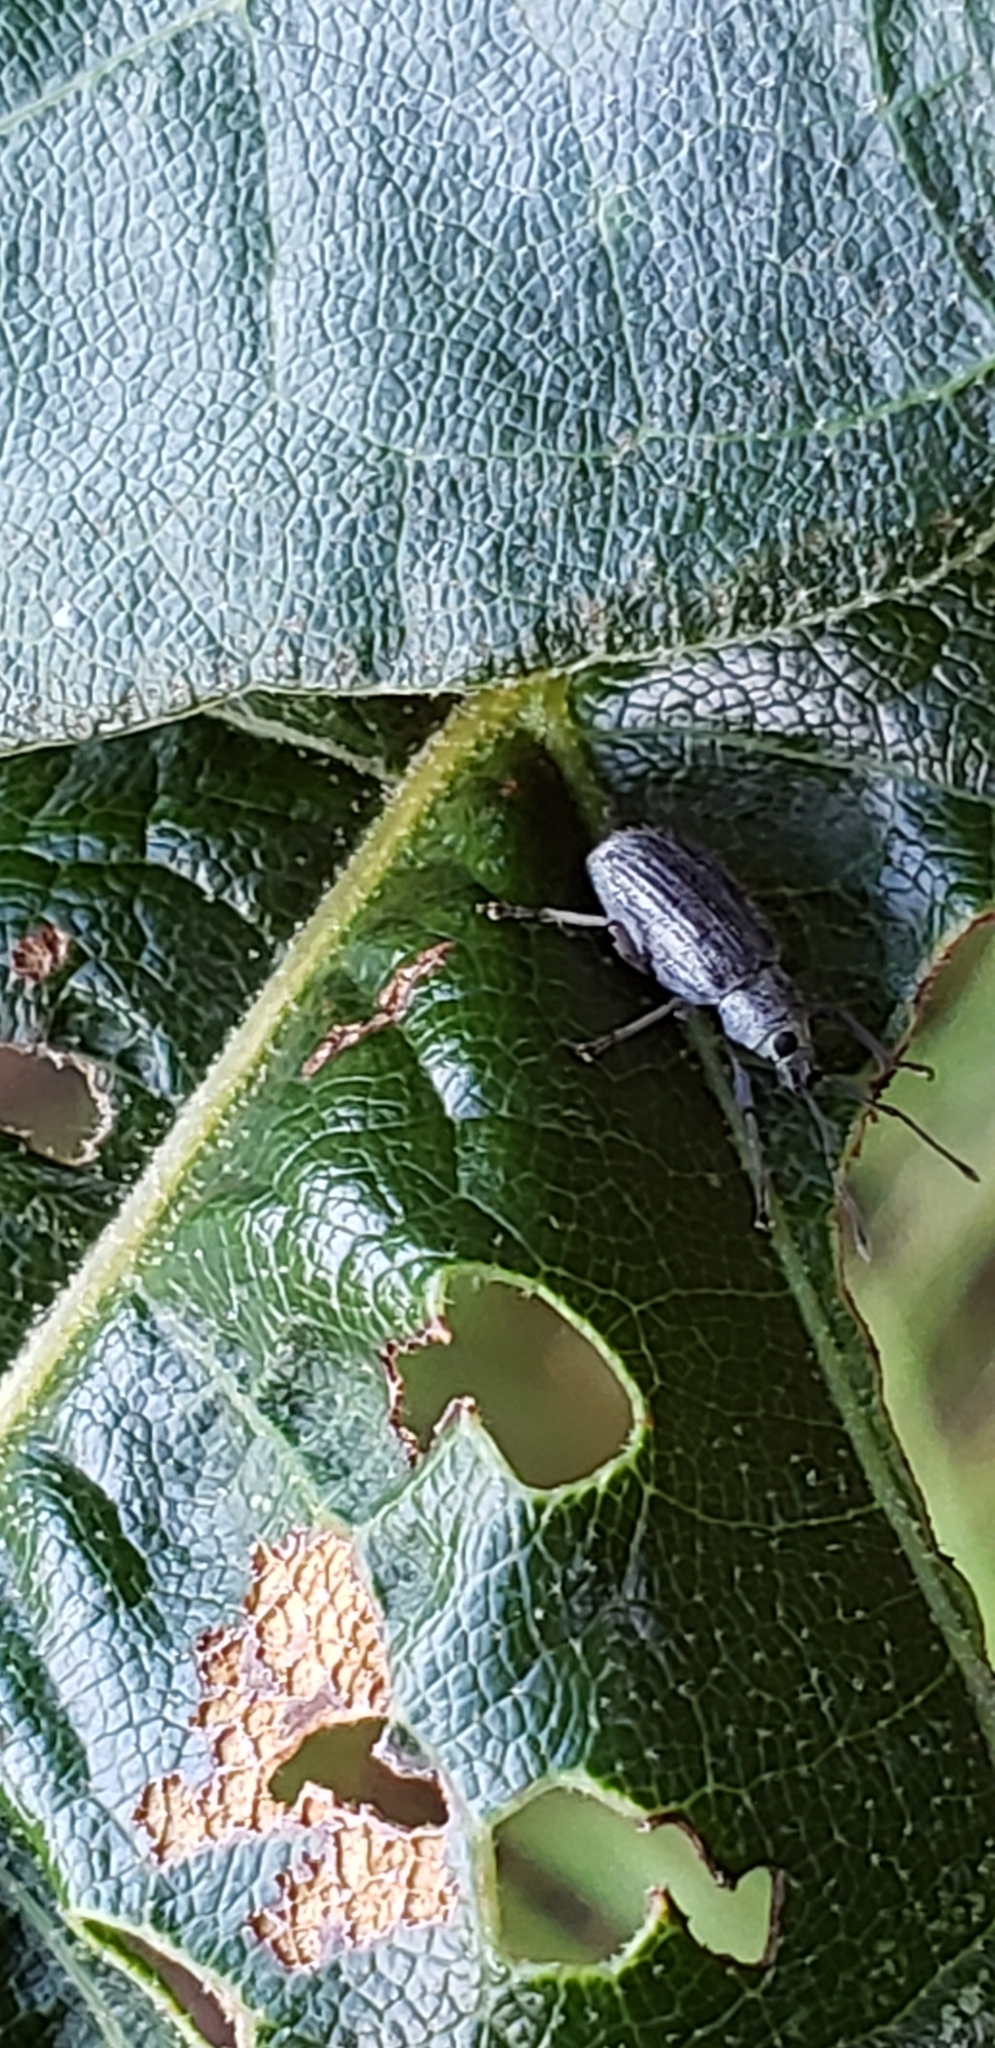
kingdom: Animalia
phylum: Arthropoda
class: Insecta
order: Coleoptera
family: Curculionidae
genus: Cyrtepistomus
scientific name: Cyrtepistomus castaneus
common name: Weevil
